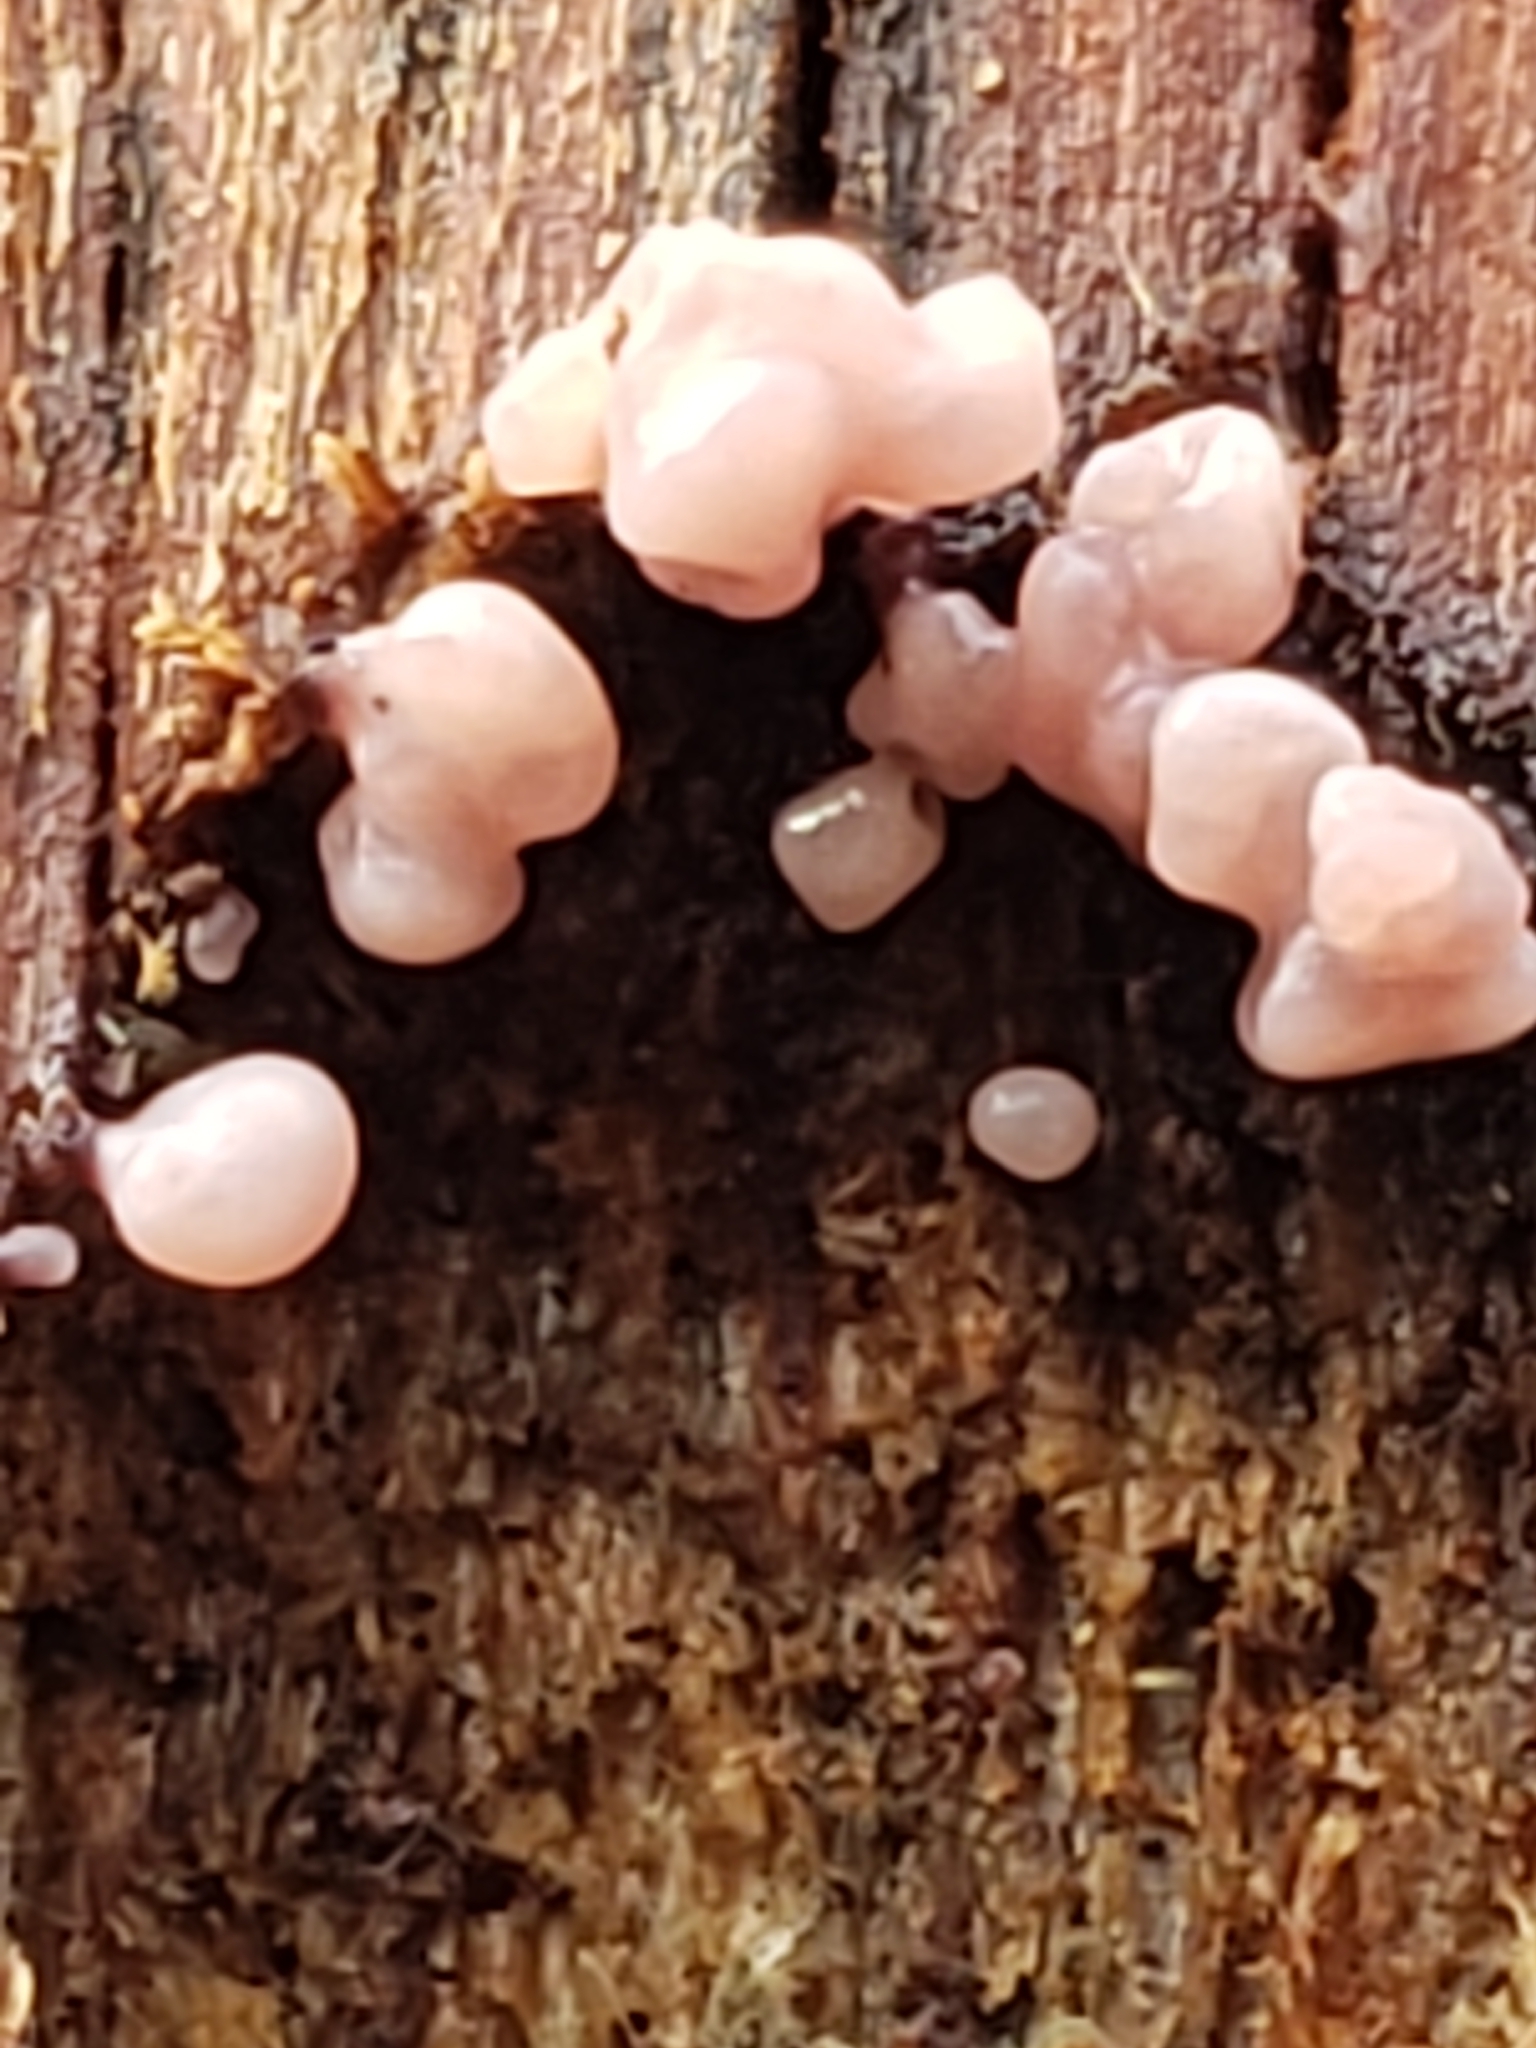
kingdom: Fungi
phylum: Ascomycota
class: Leotiomycetes
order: Helotiales
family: Gelatinodiscaceae
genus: Ascocoryne
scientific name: Ascocoryne sarcoides
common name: Purple jellydisc
